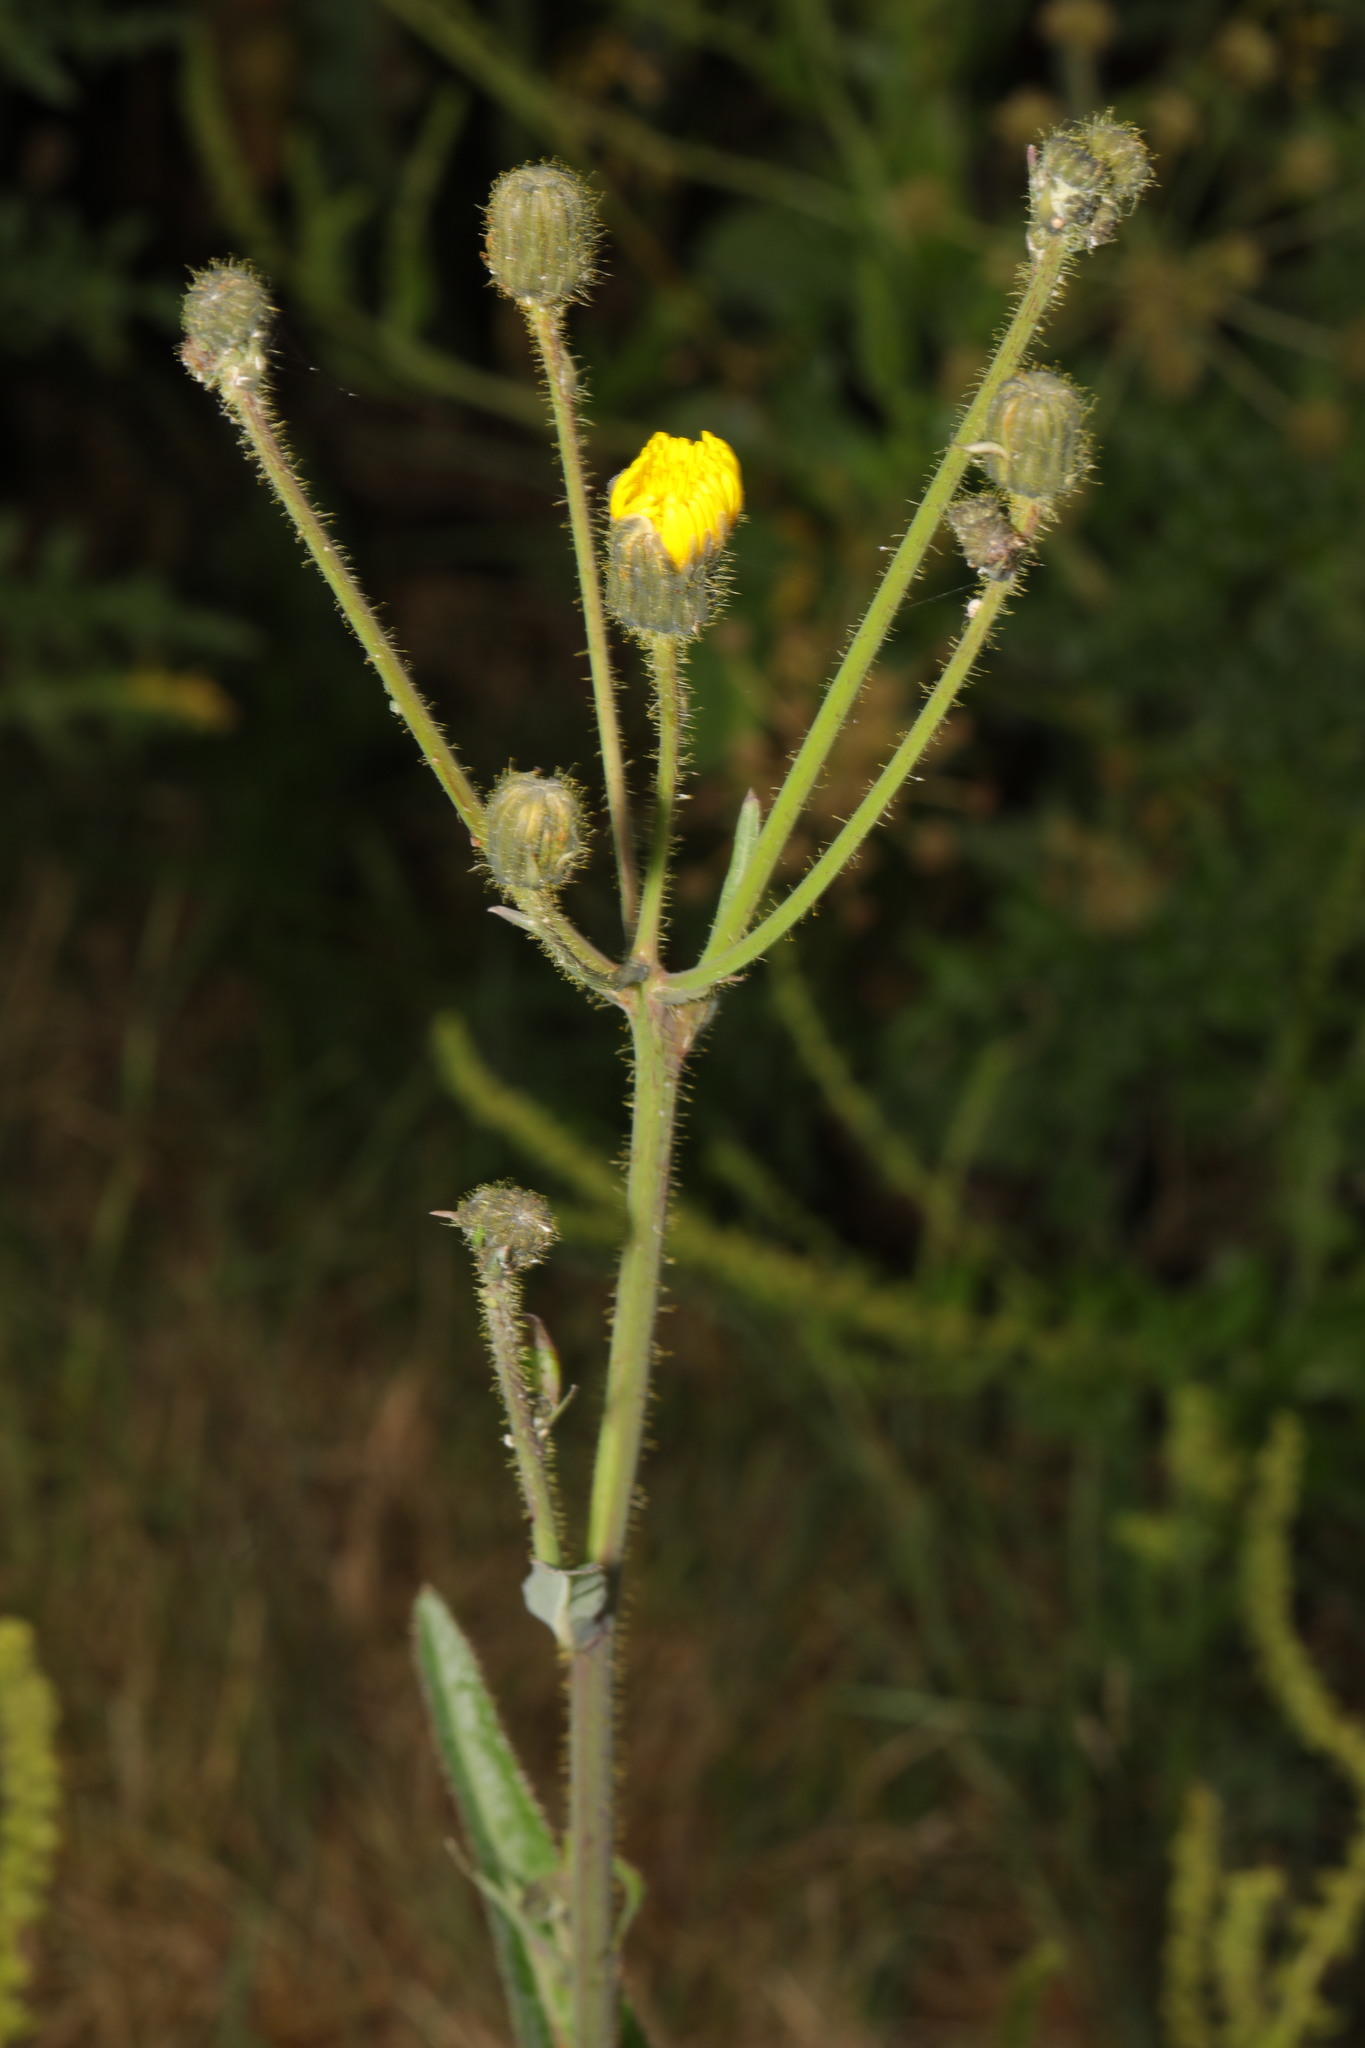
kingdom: Plantae
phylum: Tracheophyta
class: Magnoliopsida
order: Asterales
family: Asteraceae
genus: Sonchus
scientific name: Sonchus arvensis
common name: Perennial sow-thistle
